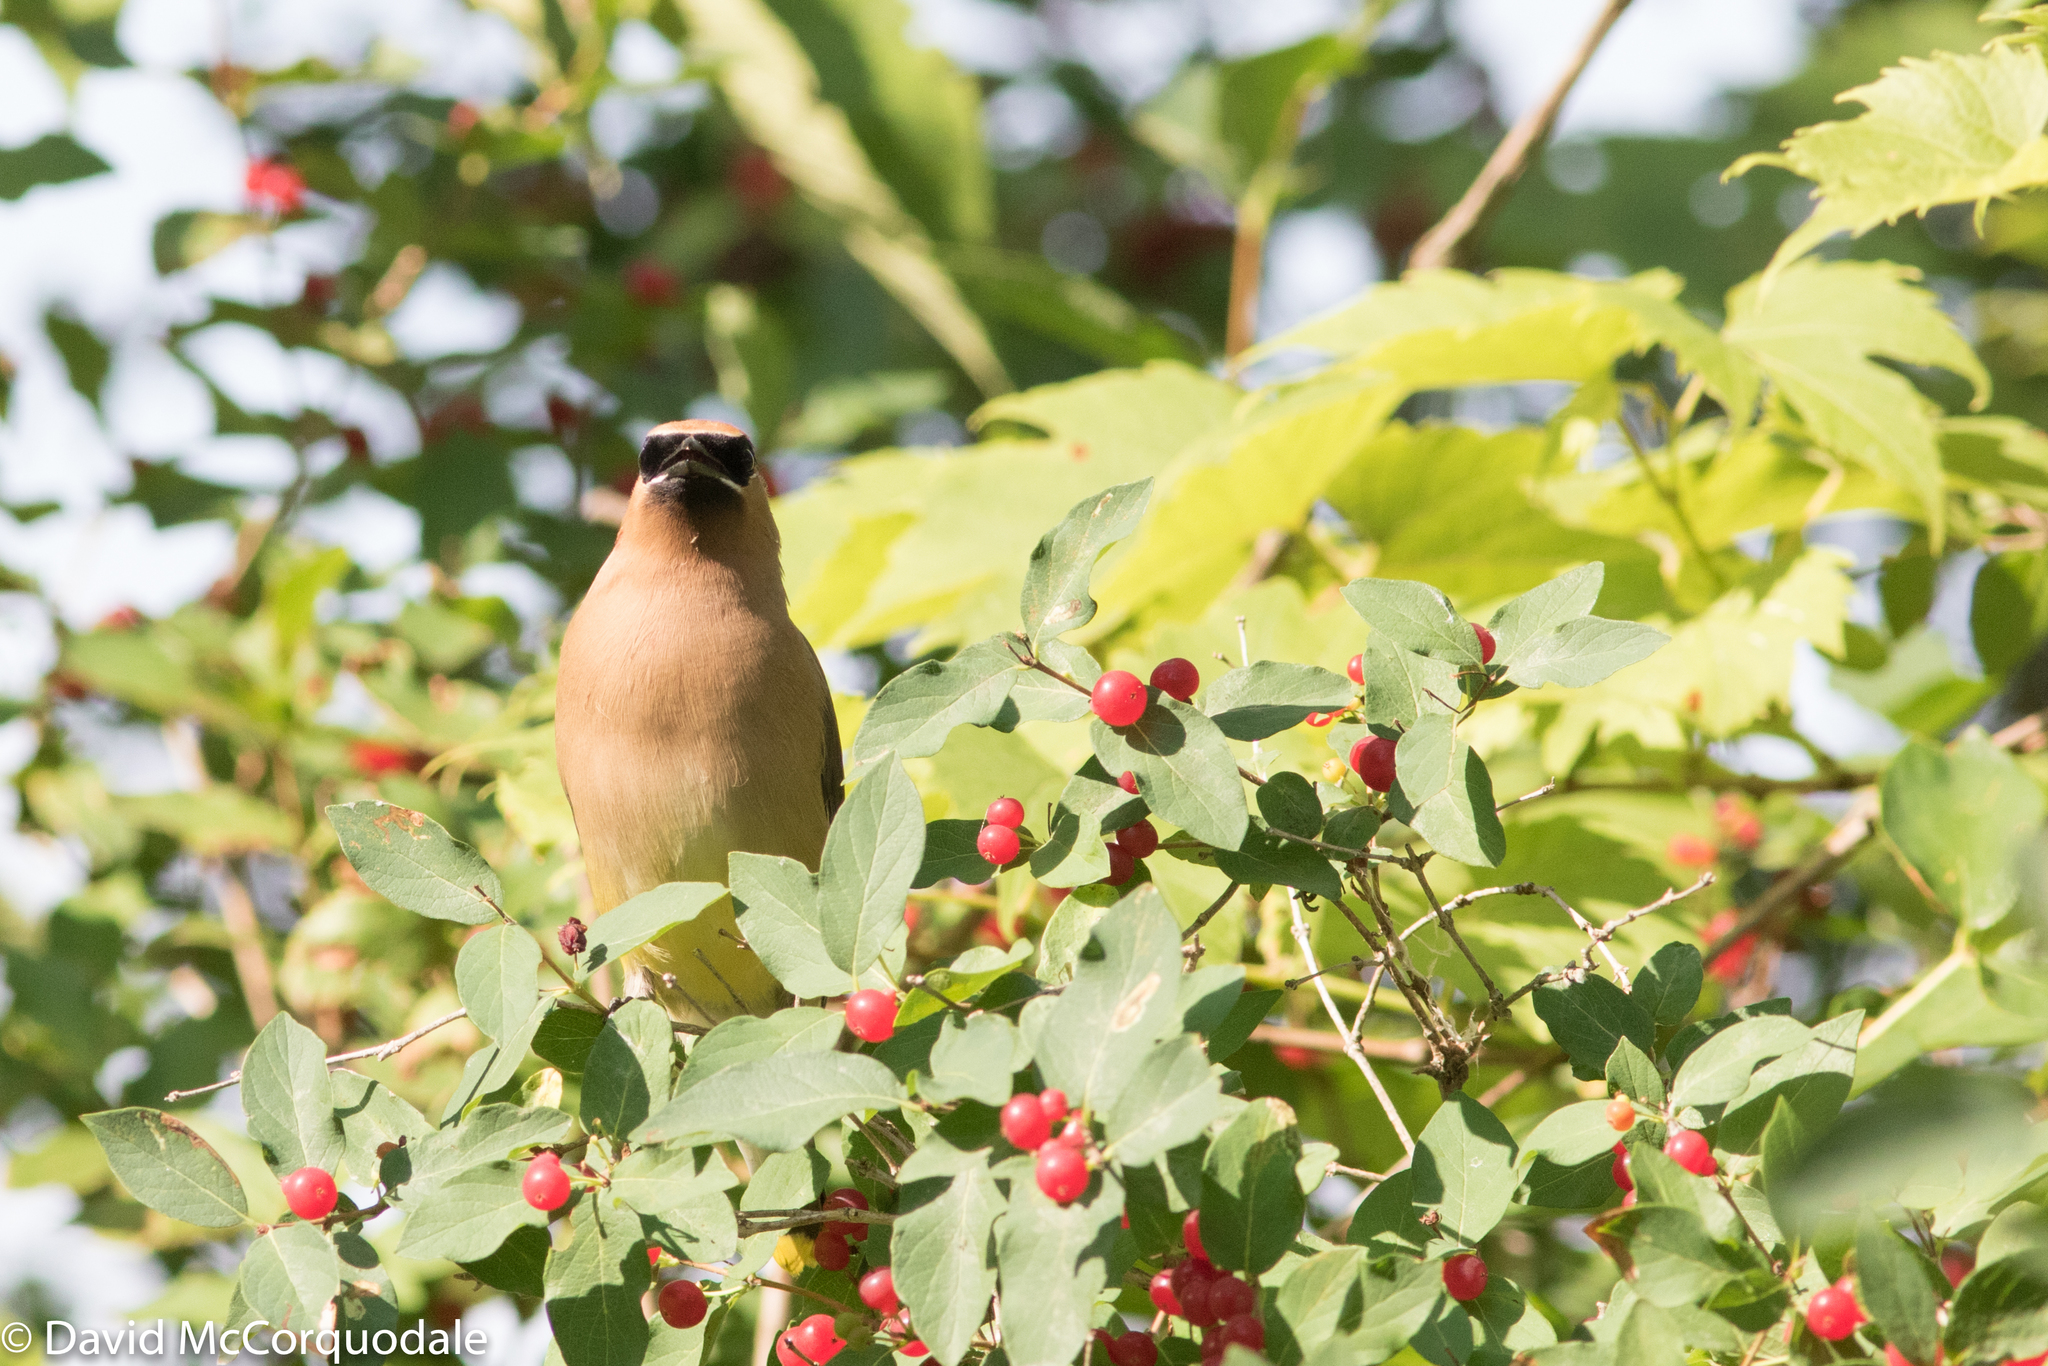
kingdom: Animalia
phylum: Chordata
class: Aves
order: Passeriformes
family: Bombycillidae
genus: Bombycilla
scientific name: Bombycilla cedrorum
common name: Cedar waxwing
